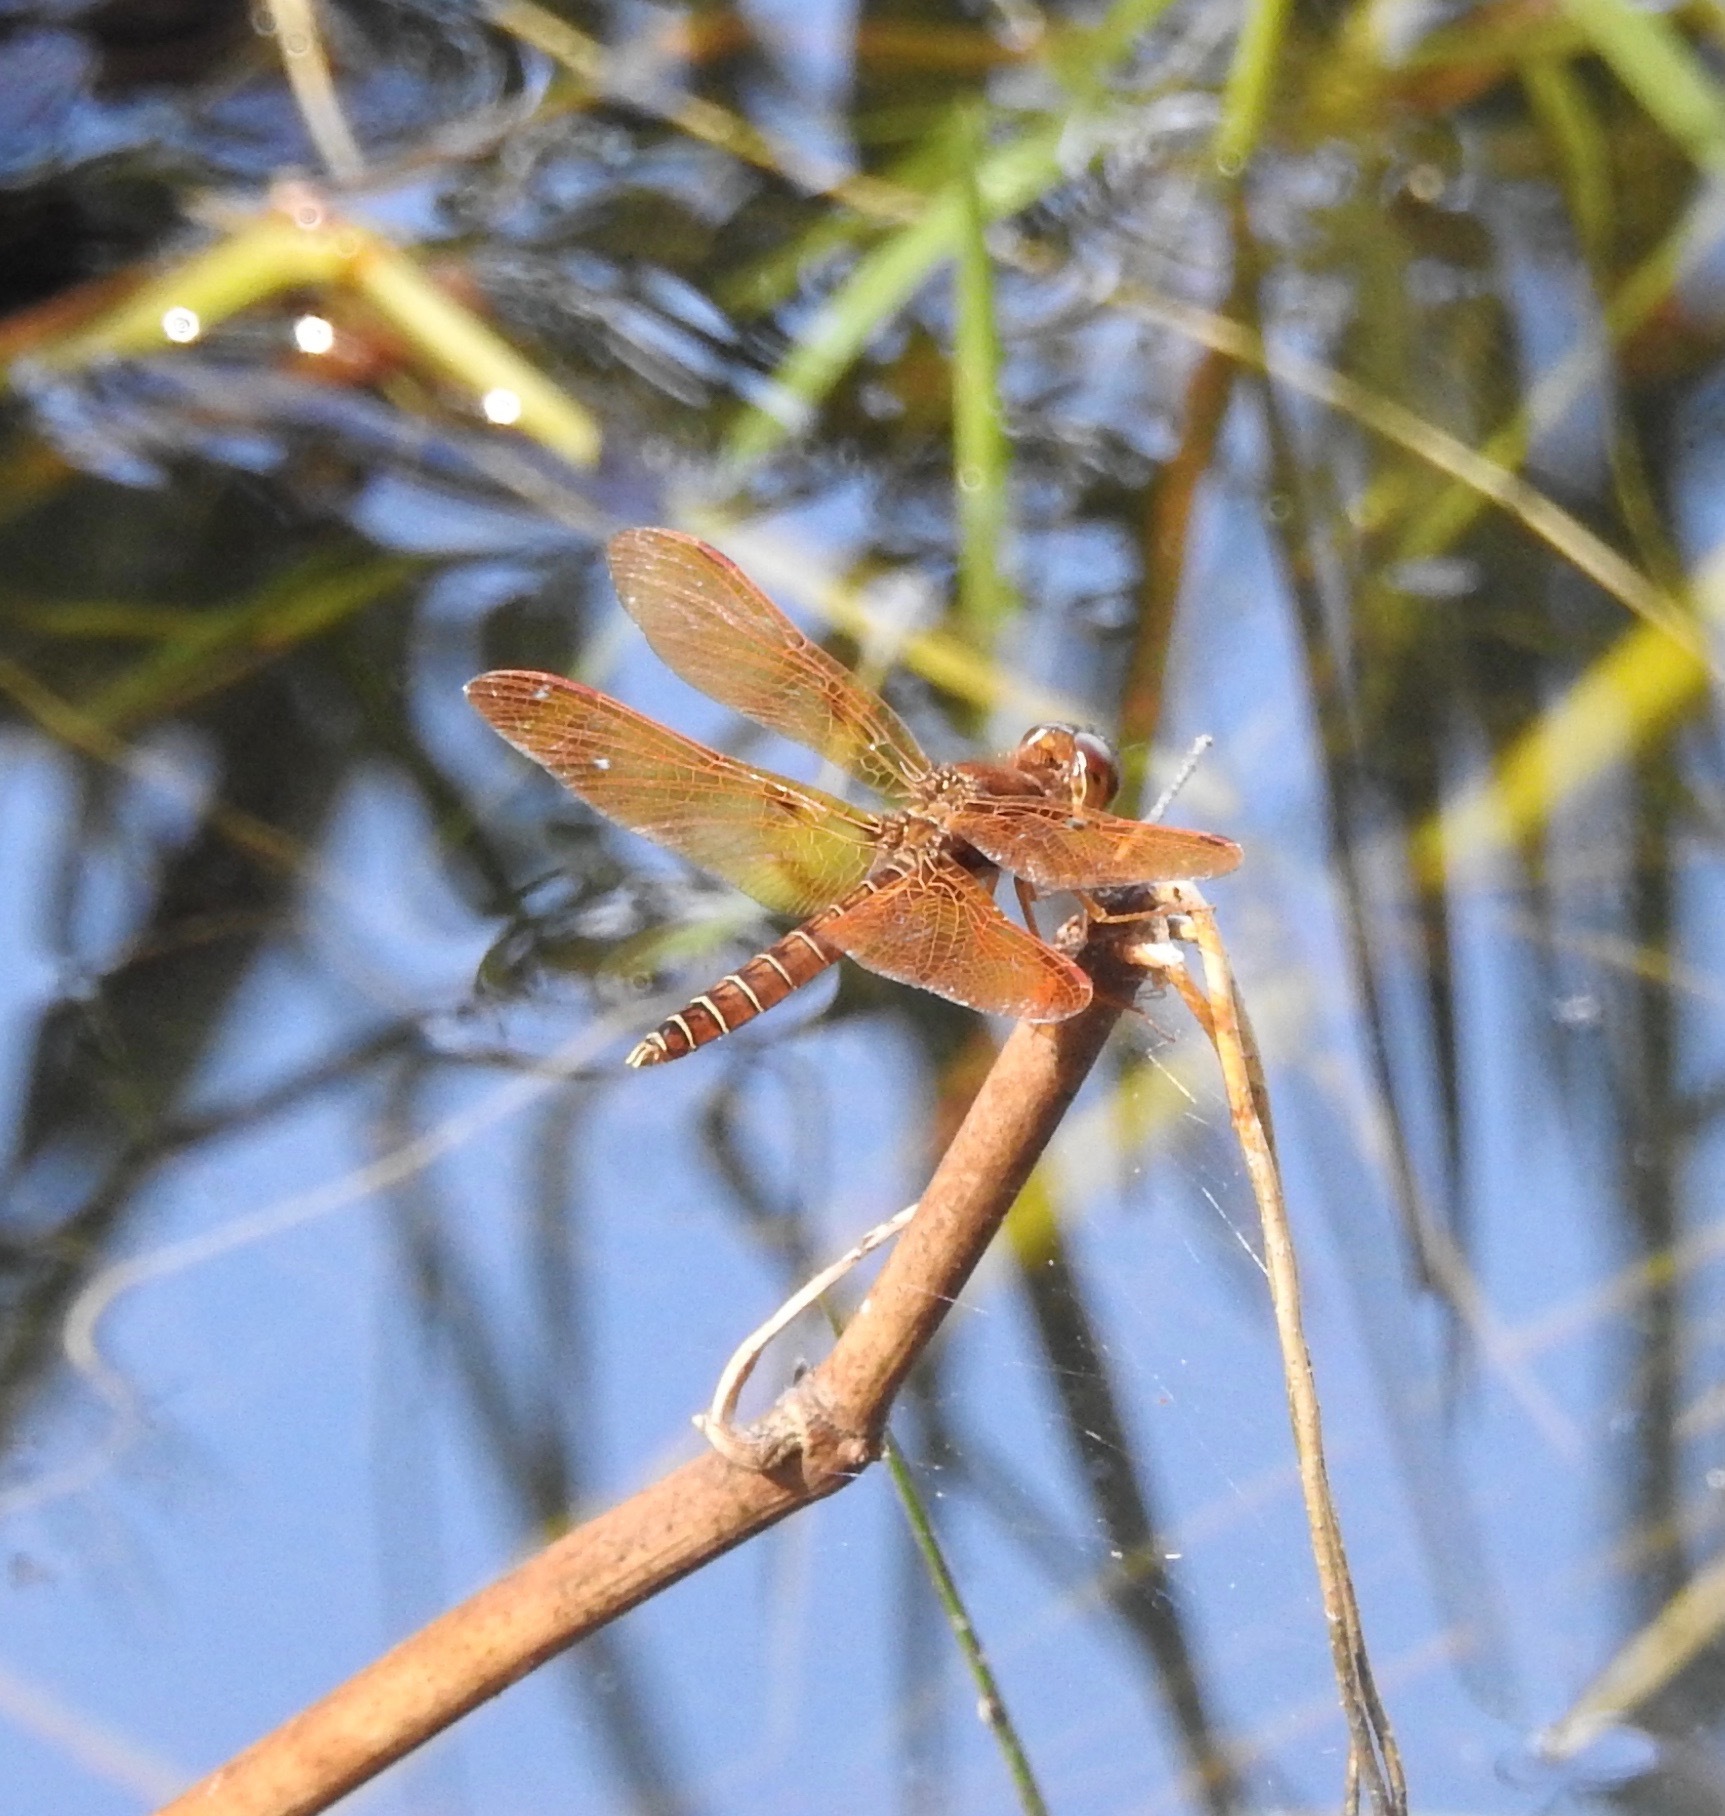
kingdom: Animalia
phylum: Arthropoda
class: Insecta
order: Odonata
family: Libellulidae
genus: Perithemis
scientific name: Perithemis tenera
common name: Eastern amberwing
